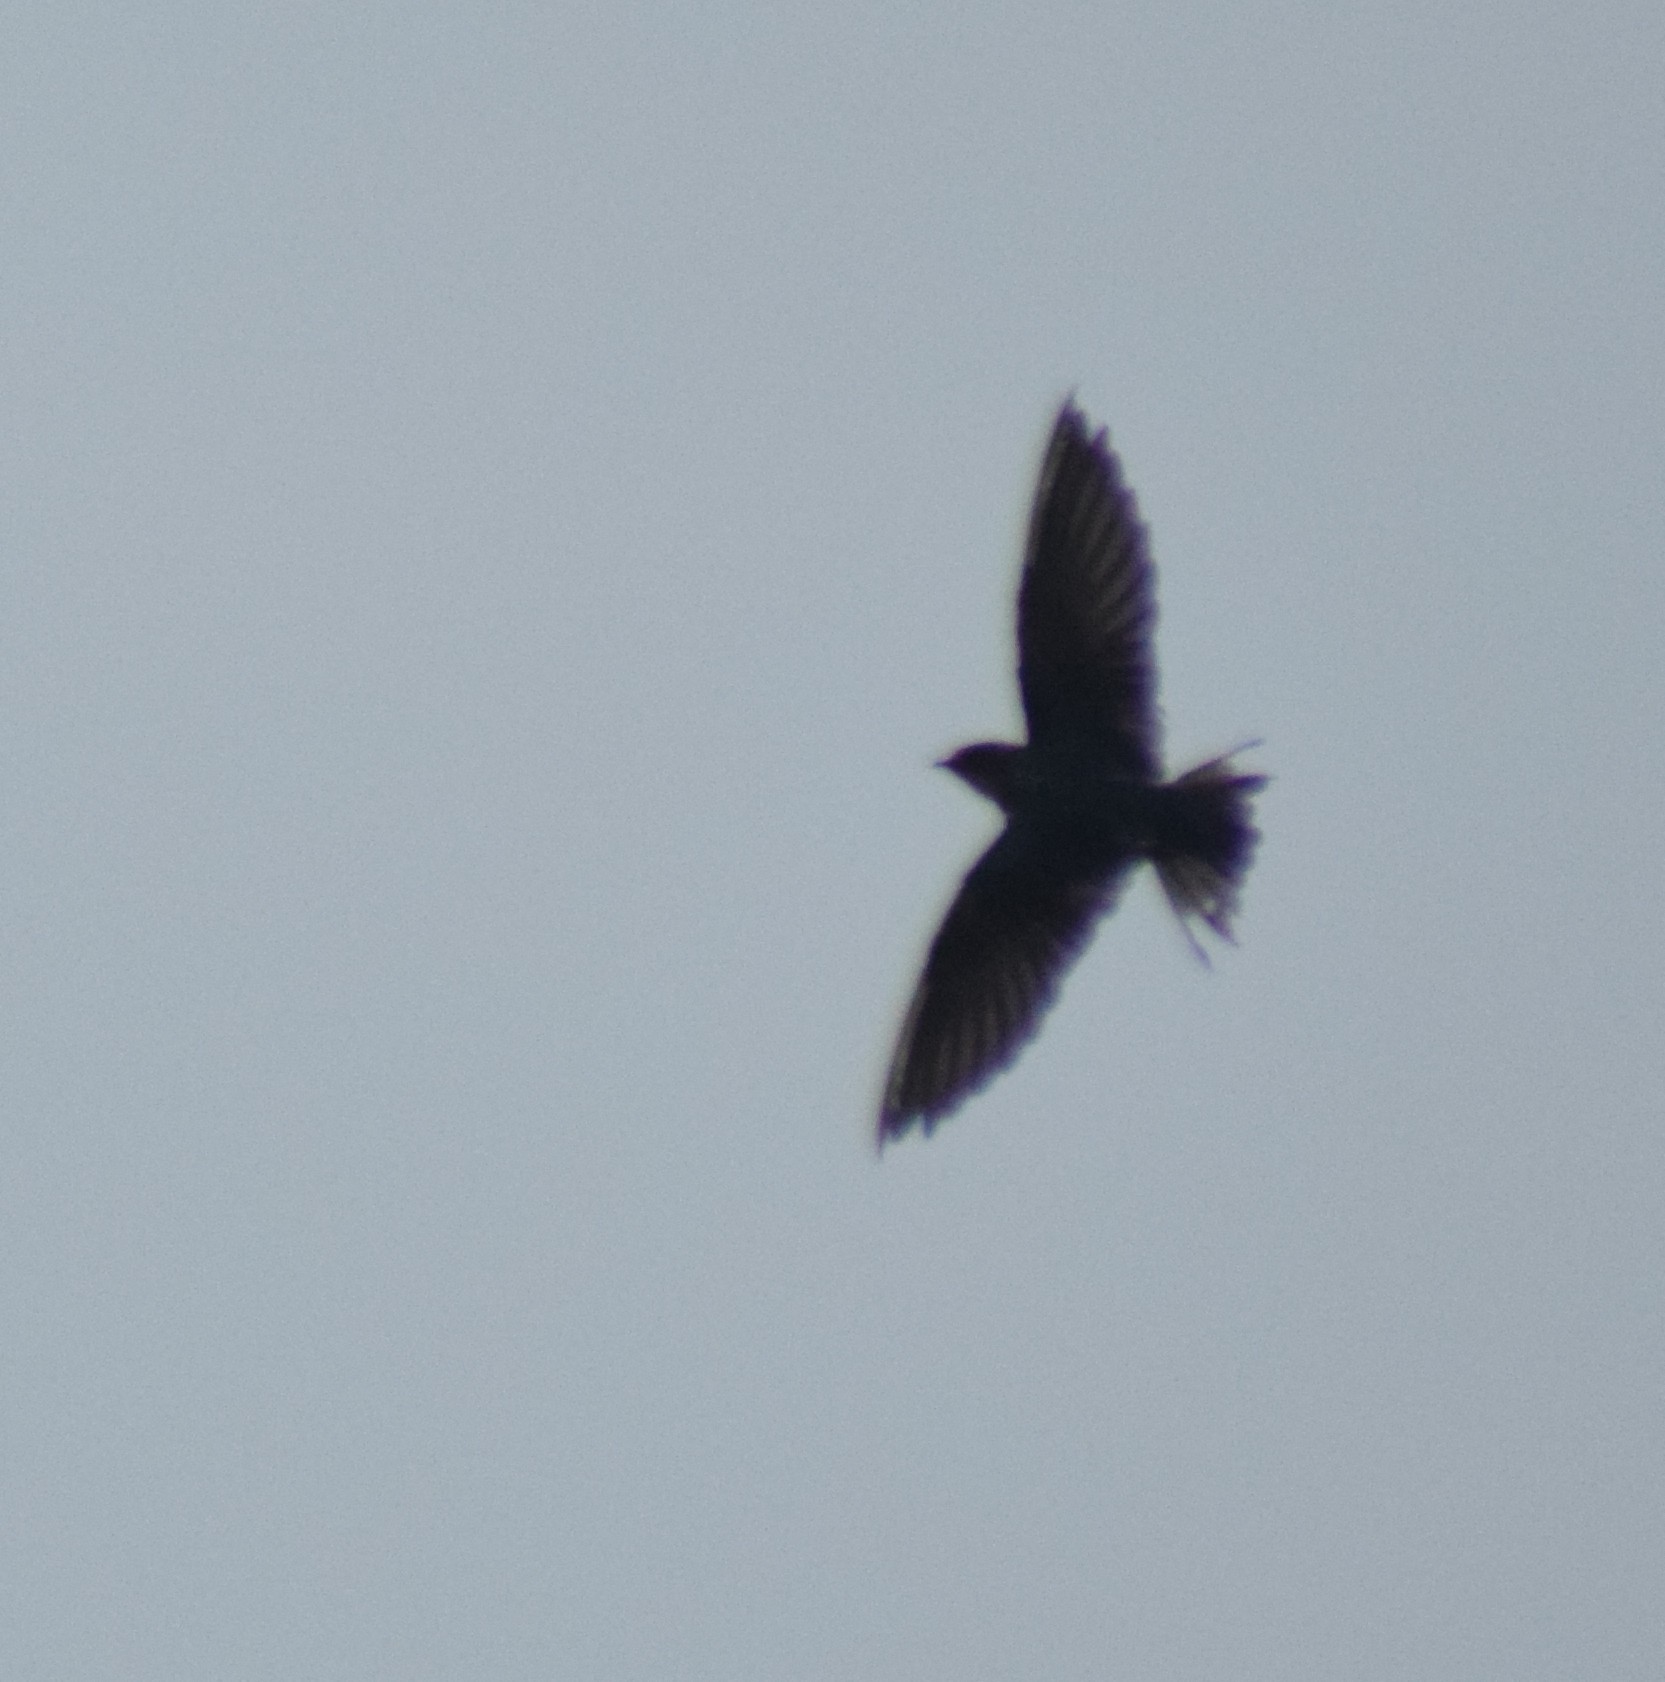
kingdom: Animalia
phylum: Chordata
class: Aves
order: Passeriformes
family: Hirundinidae
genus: Hirundo
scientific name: Hirundo rustica
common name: Barn swallow
